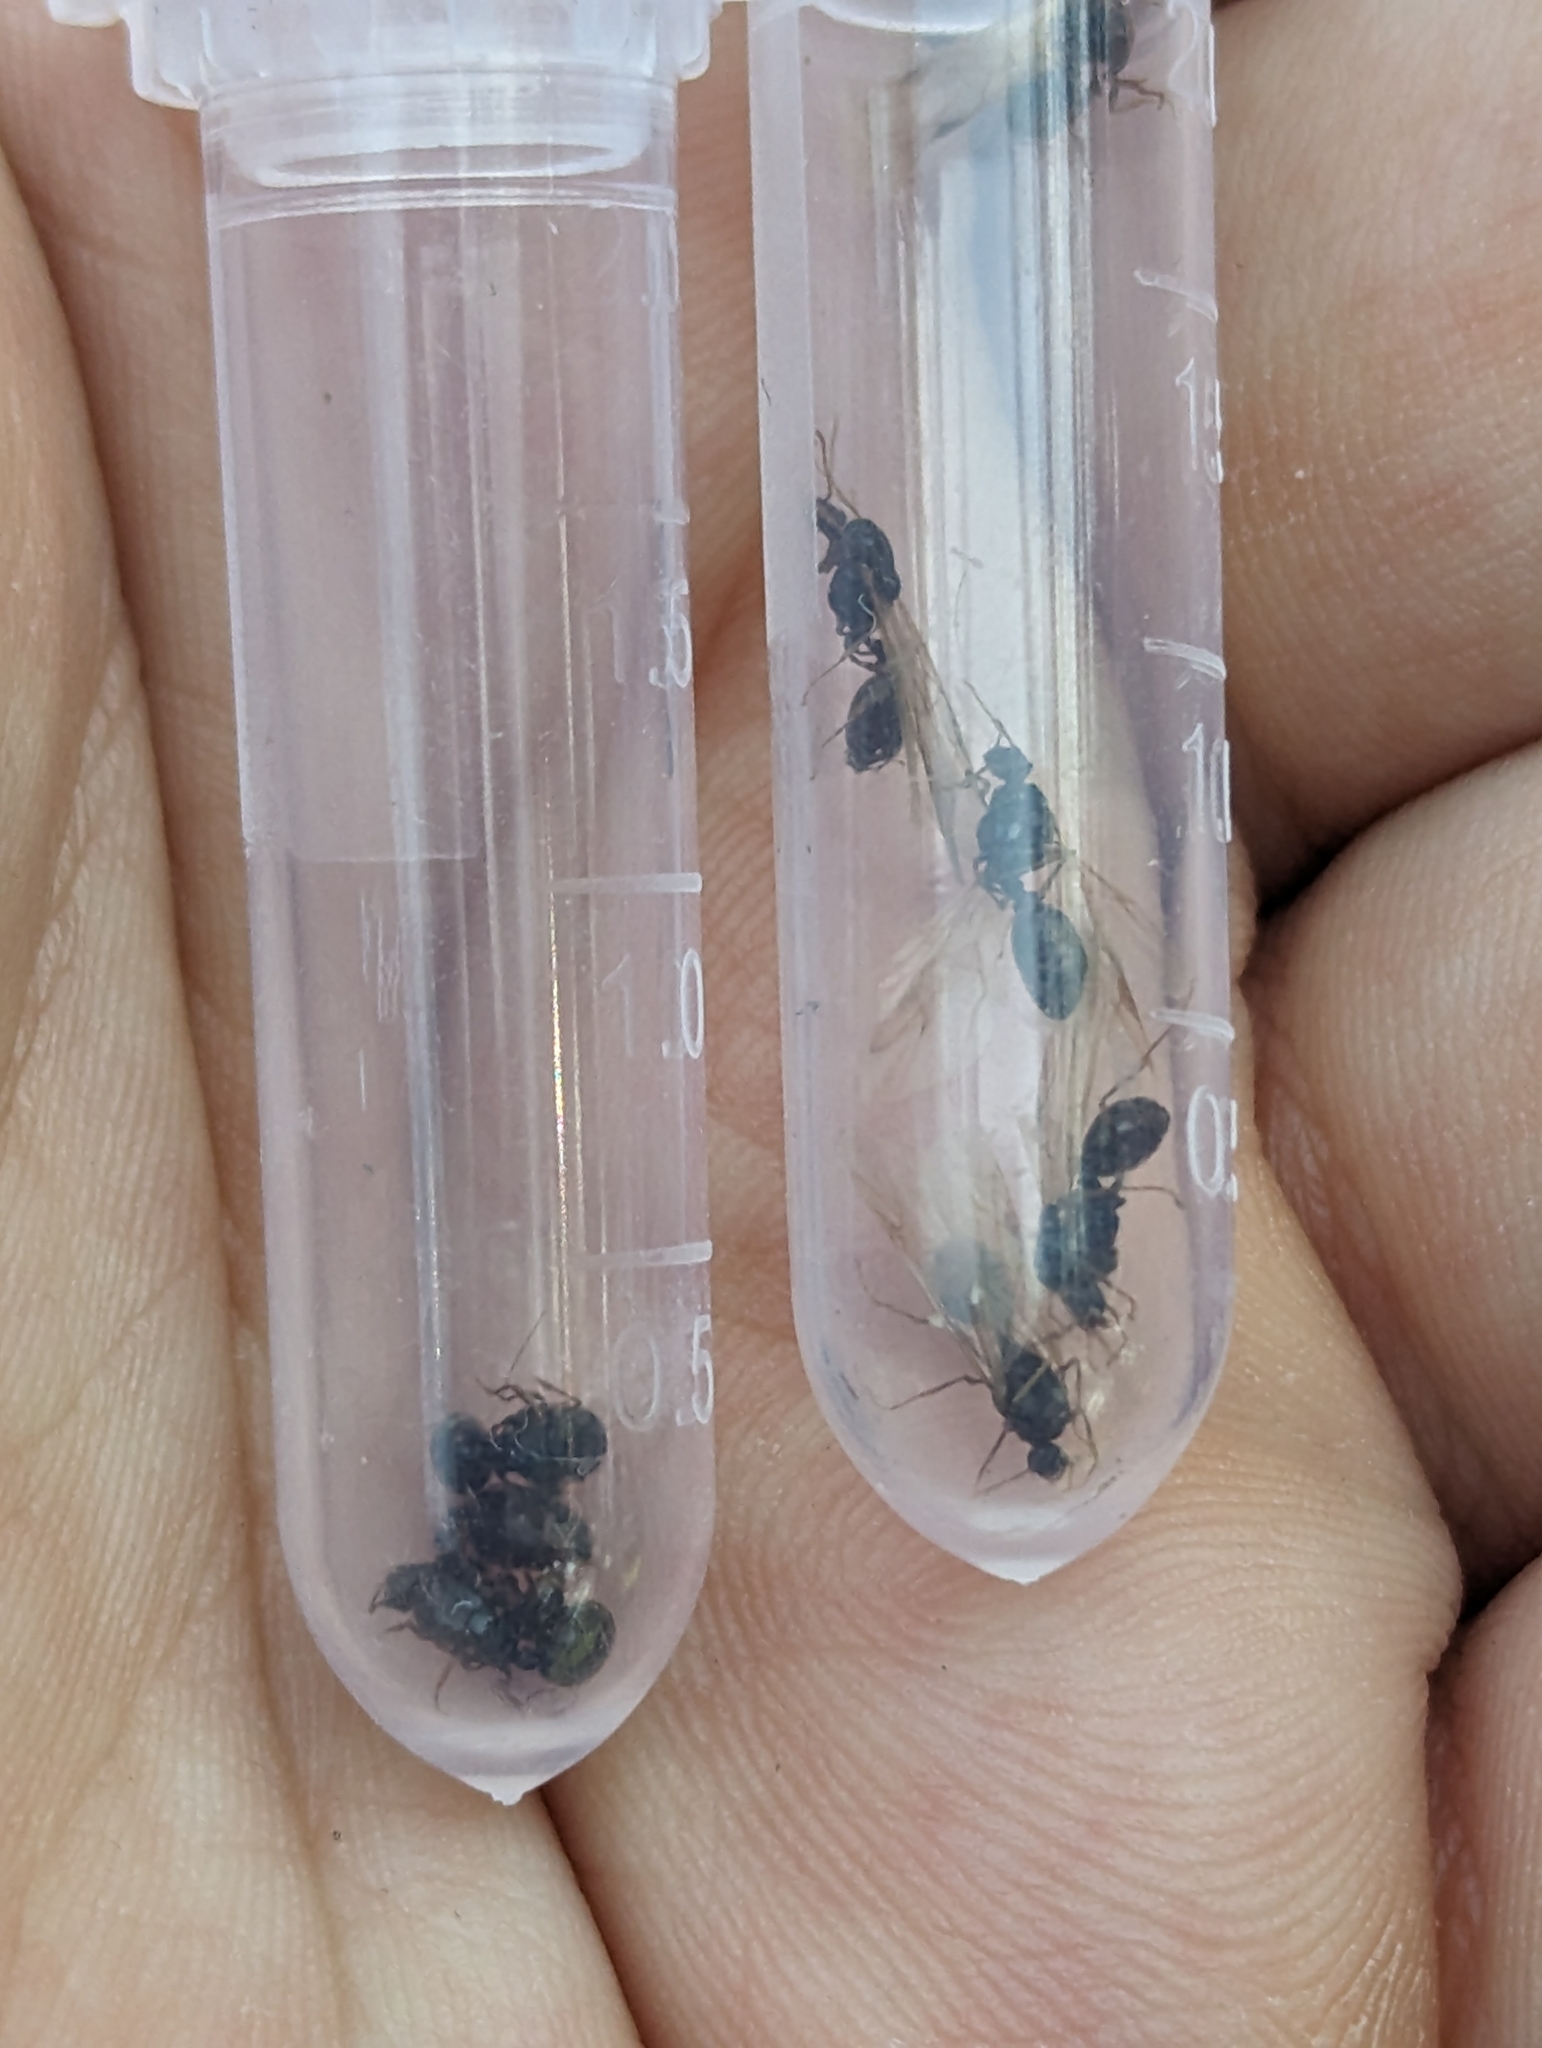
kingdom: Animalia
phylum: Arthropoda
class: Insecta
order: Hymenoptera
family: Formicidae
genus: Tetramorium
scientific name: Tetramorium immigrans
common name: Pavement ant
